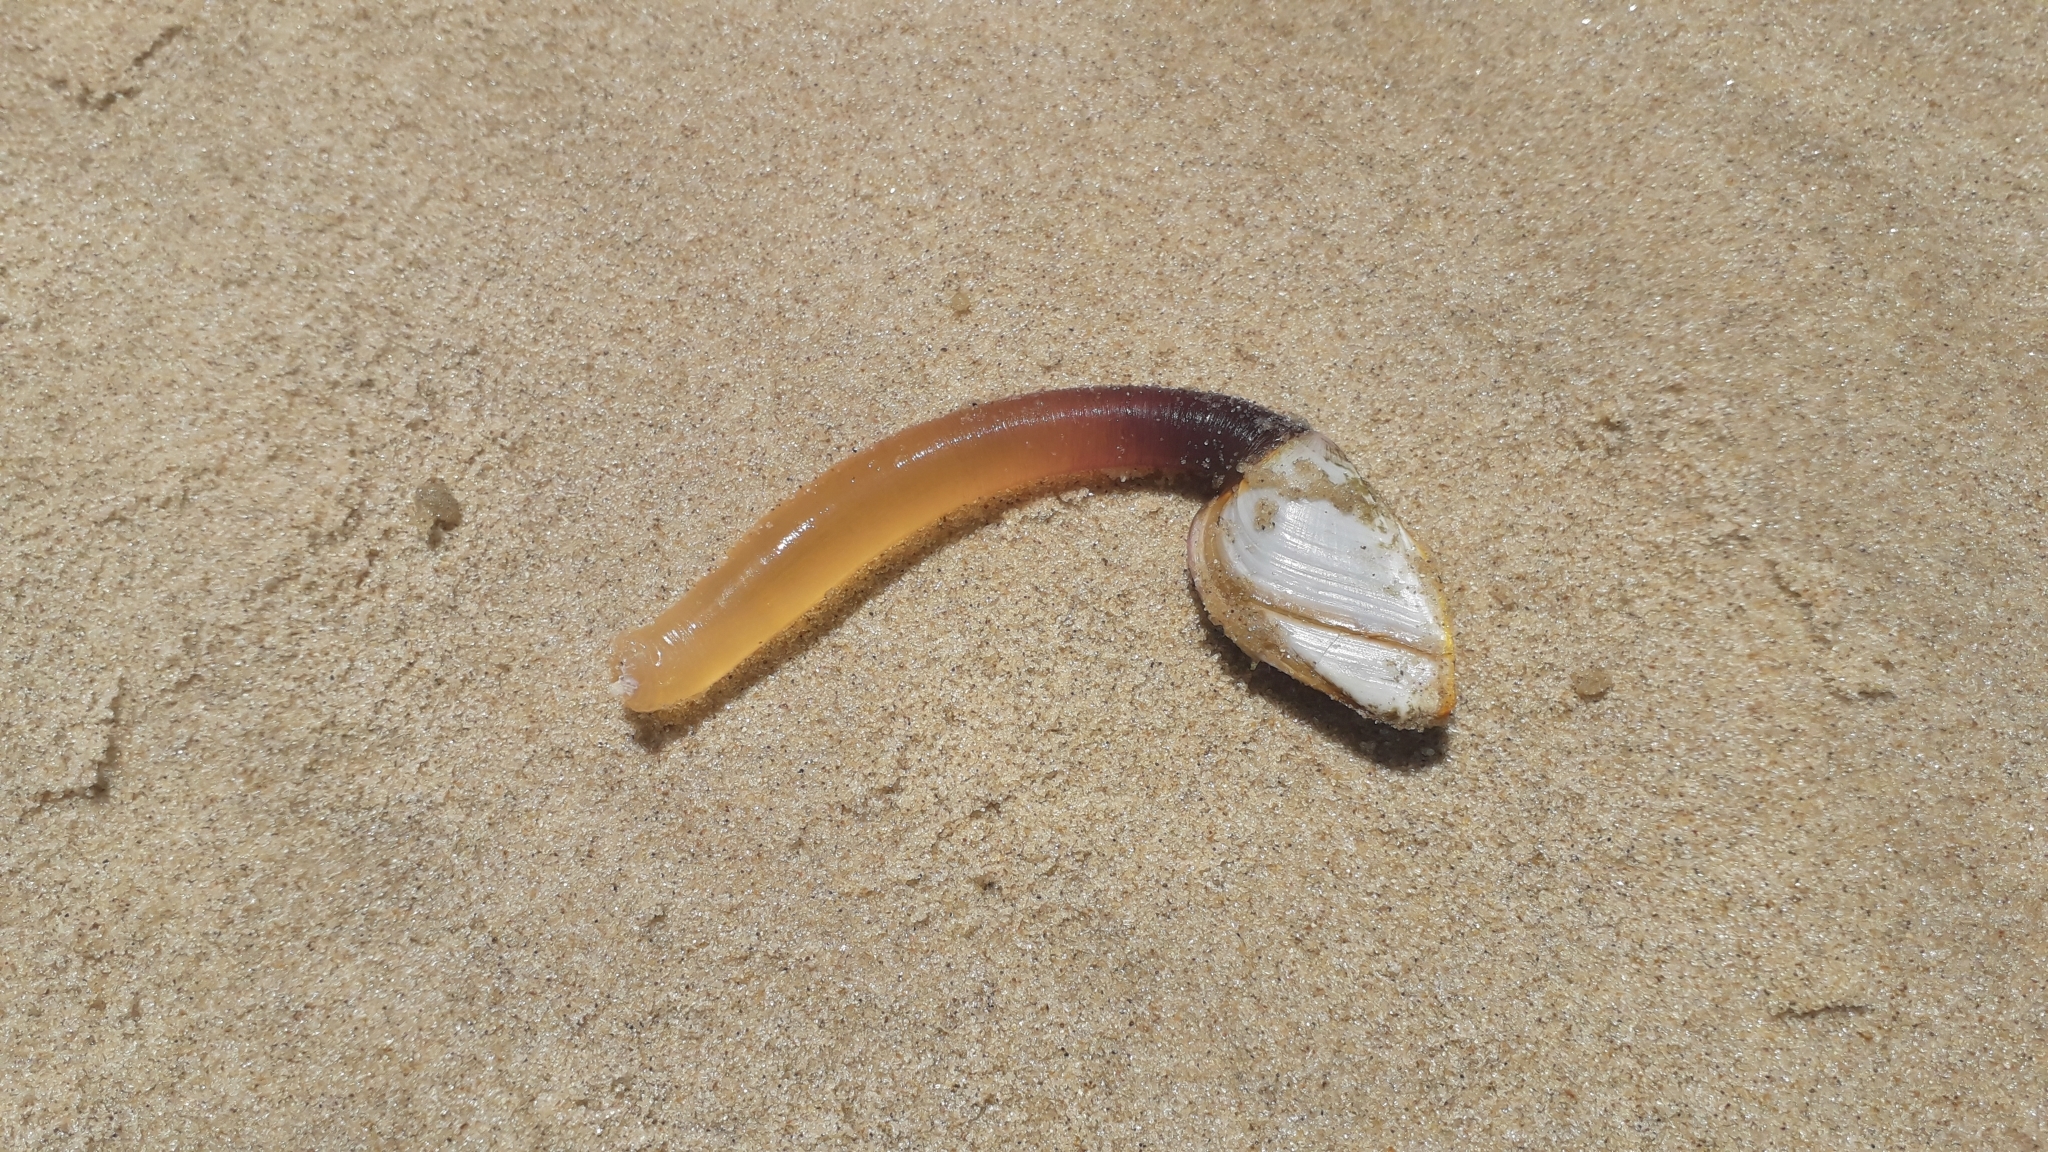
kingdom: Animalia
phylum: Arthropoda
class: Maxillopoda
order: Pedunculata
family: Lepadidae
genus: Lepas
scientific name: Lepas anatifera
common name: Common goose barnacle
